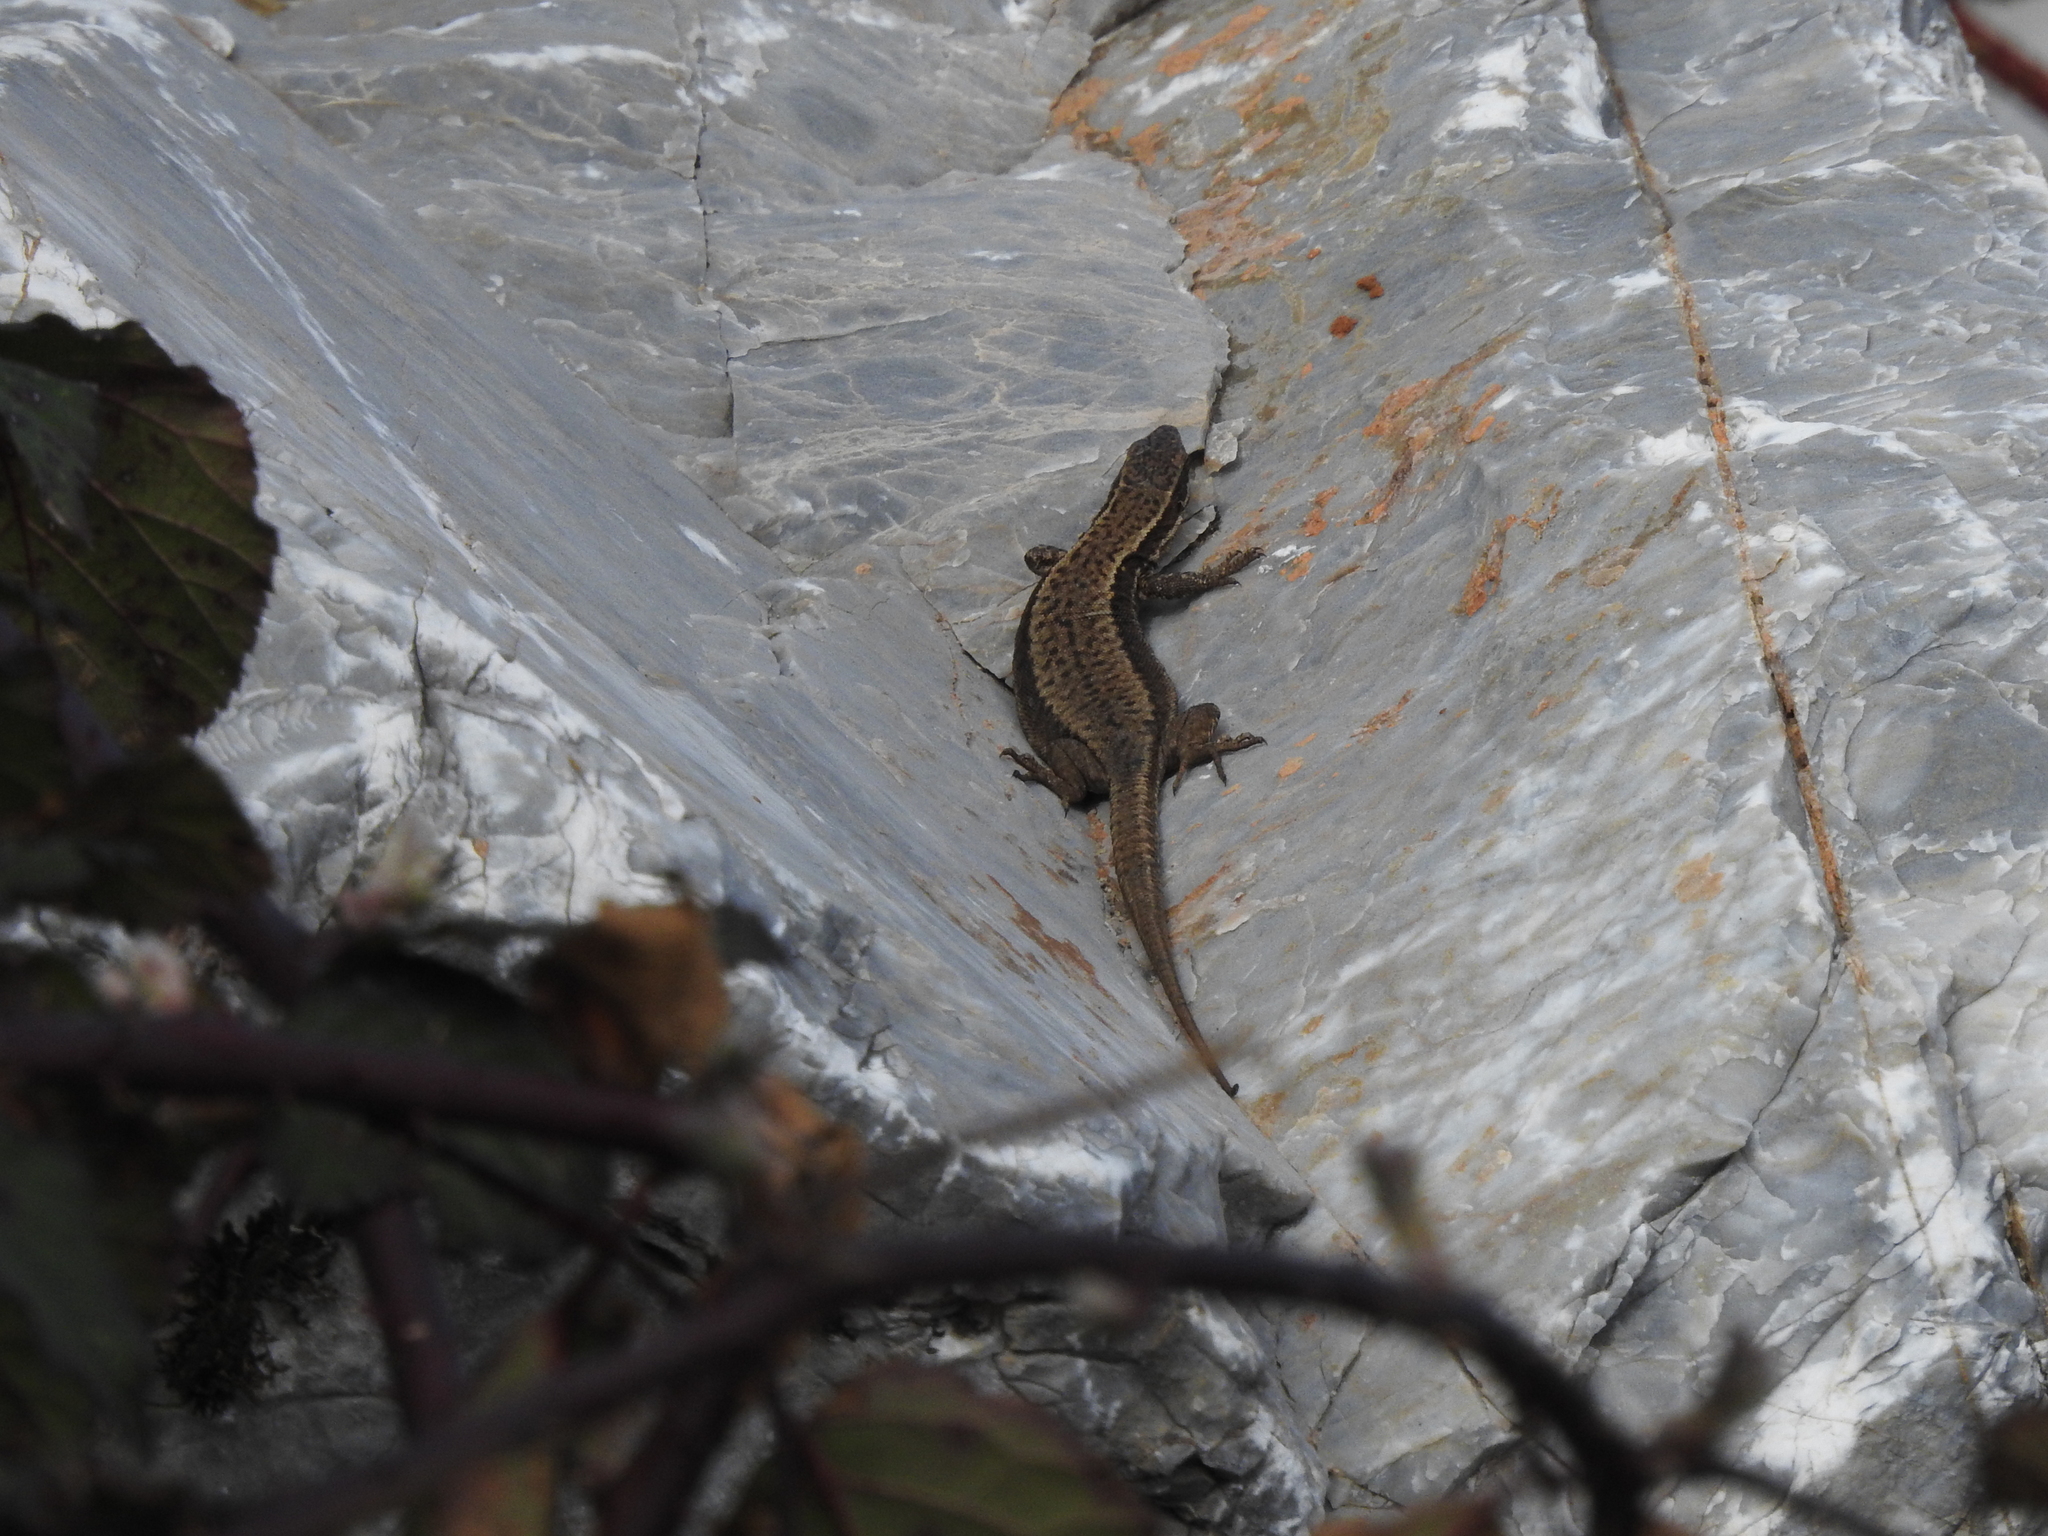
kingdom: Animalia
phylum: Chordata
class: Squamata
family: Lacertidae
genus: Podarcis
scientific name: Podarcis muralis
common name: Common wall lizard
